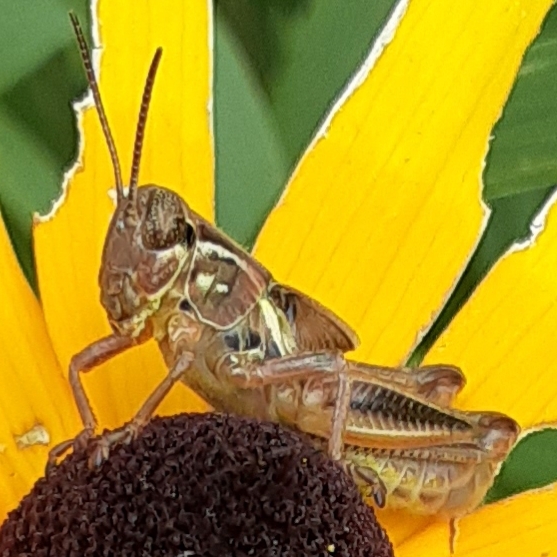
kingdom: Animalia
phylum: Arthropoda
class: Insecta
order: Orthoptera
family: Acrididae
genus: Melanoplus
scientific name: Melanoplus femurrubrum
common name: Red-legged grasshopper
